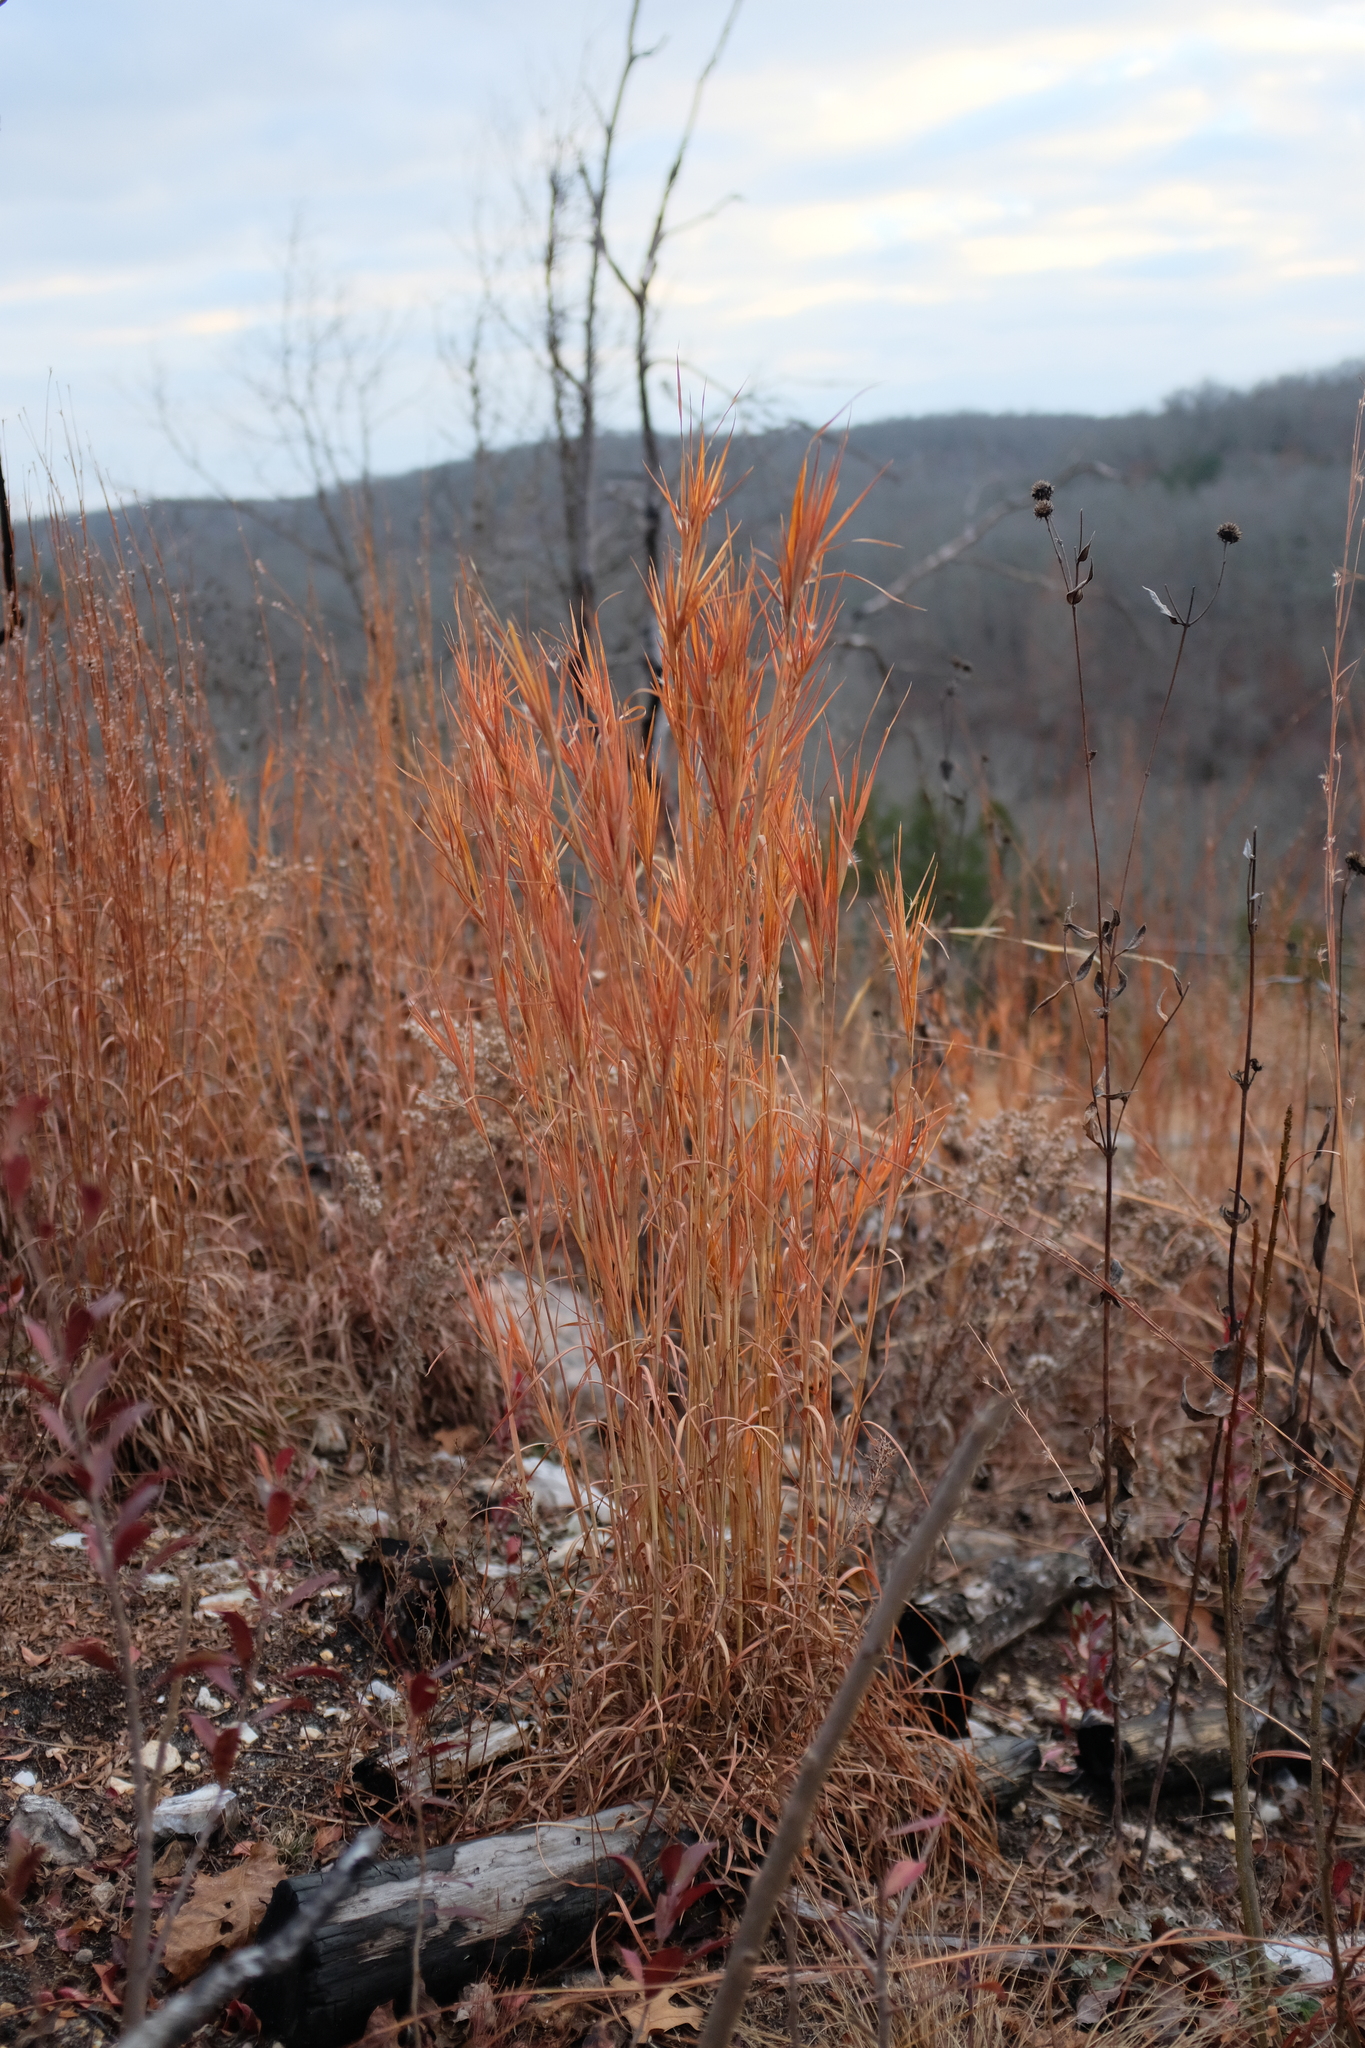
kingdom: Plantae
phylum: Tracheophyta
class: Liliopsida
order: Poales
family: Poaceae
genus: Andropogon
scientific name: Andropogon gyrans
